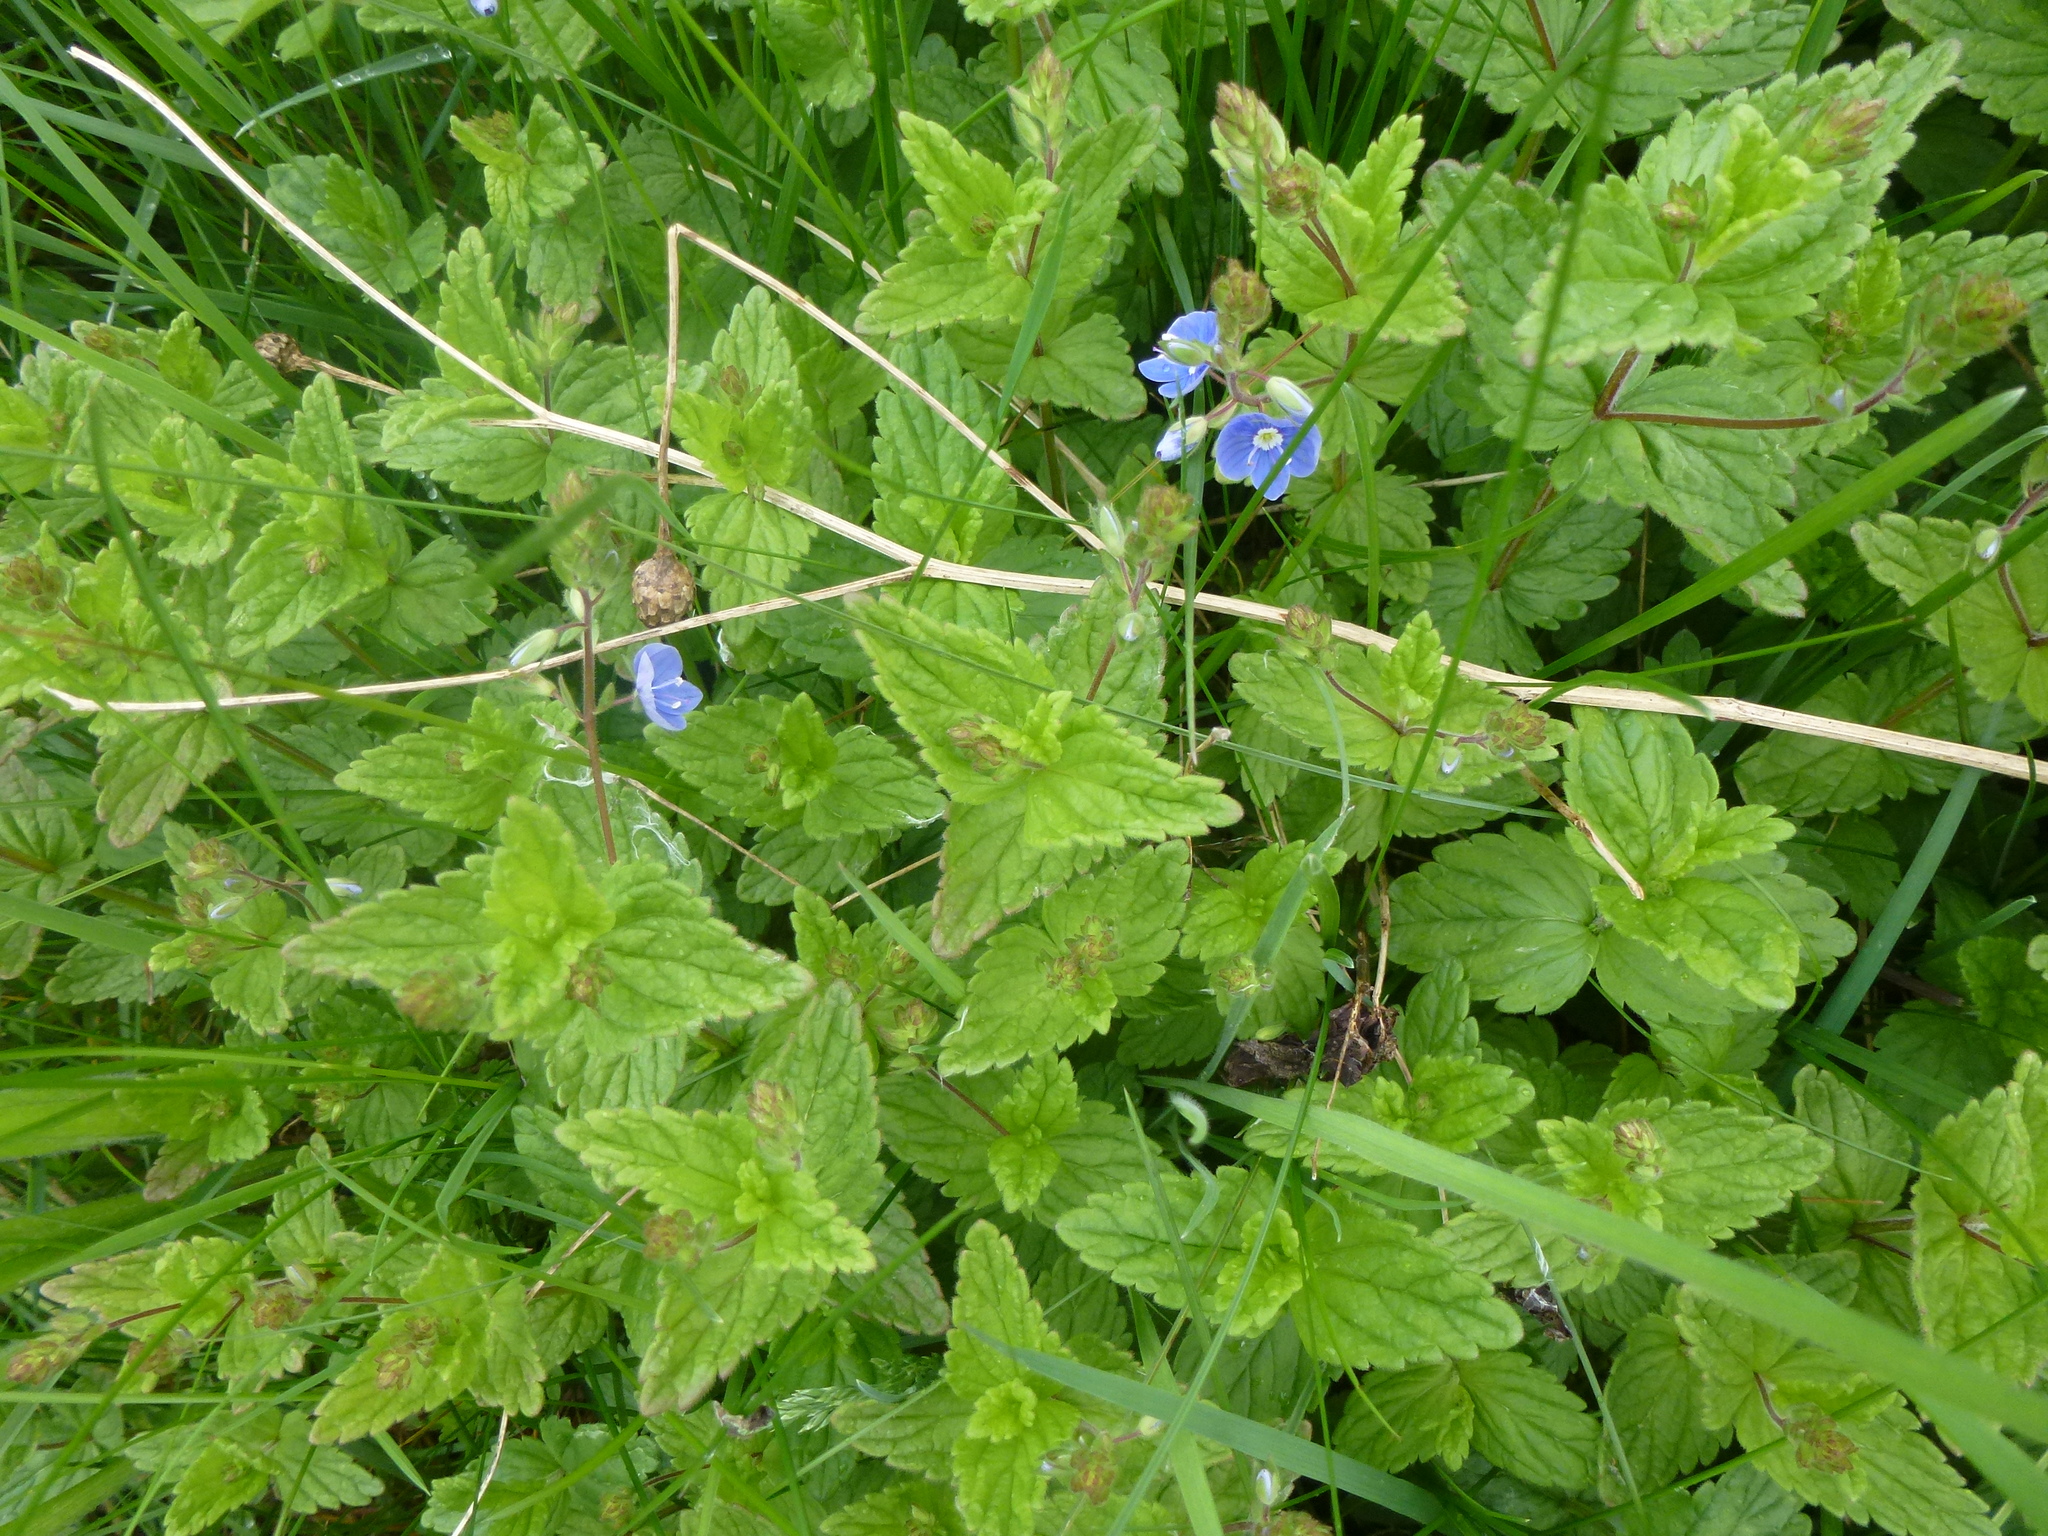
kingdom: Plantae
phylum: Tracheophyta
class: Magnoliopsida
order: Lamiales
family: Plantaginaceae
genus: Veronica
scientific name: Veronica chamaedrys
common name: Germander speedwell
